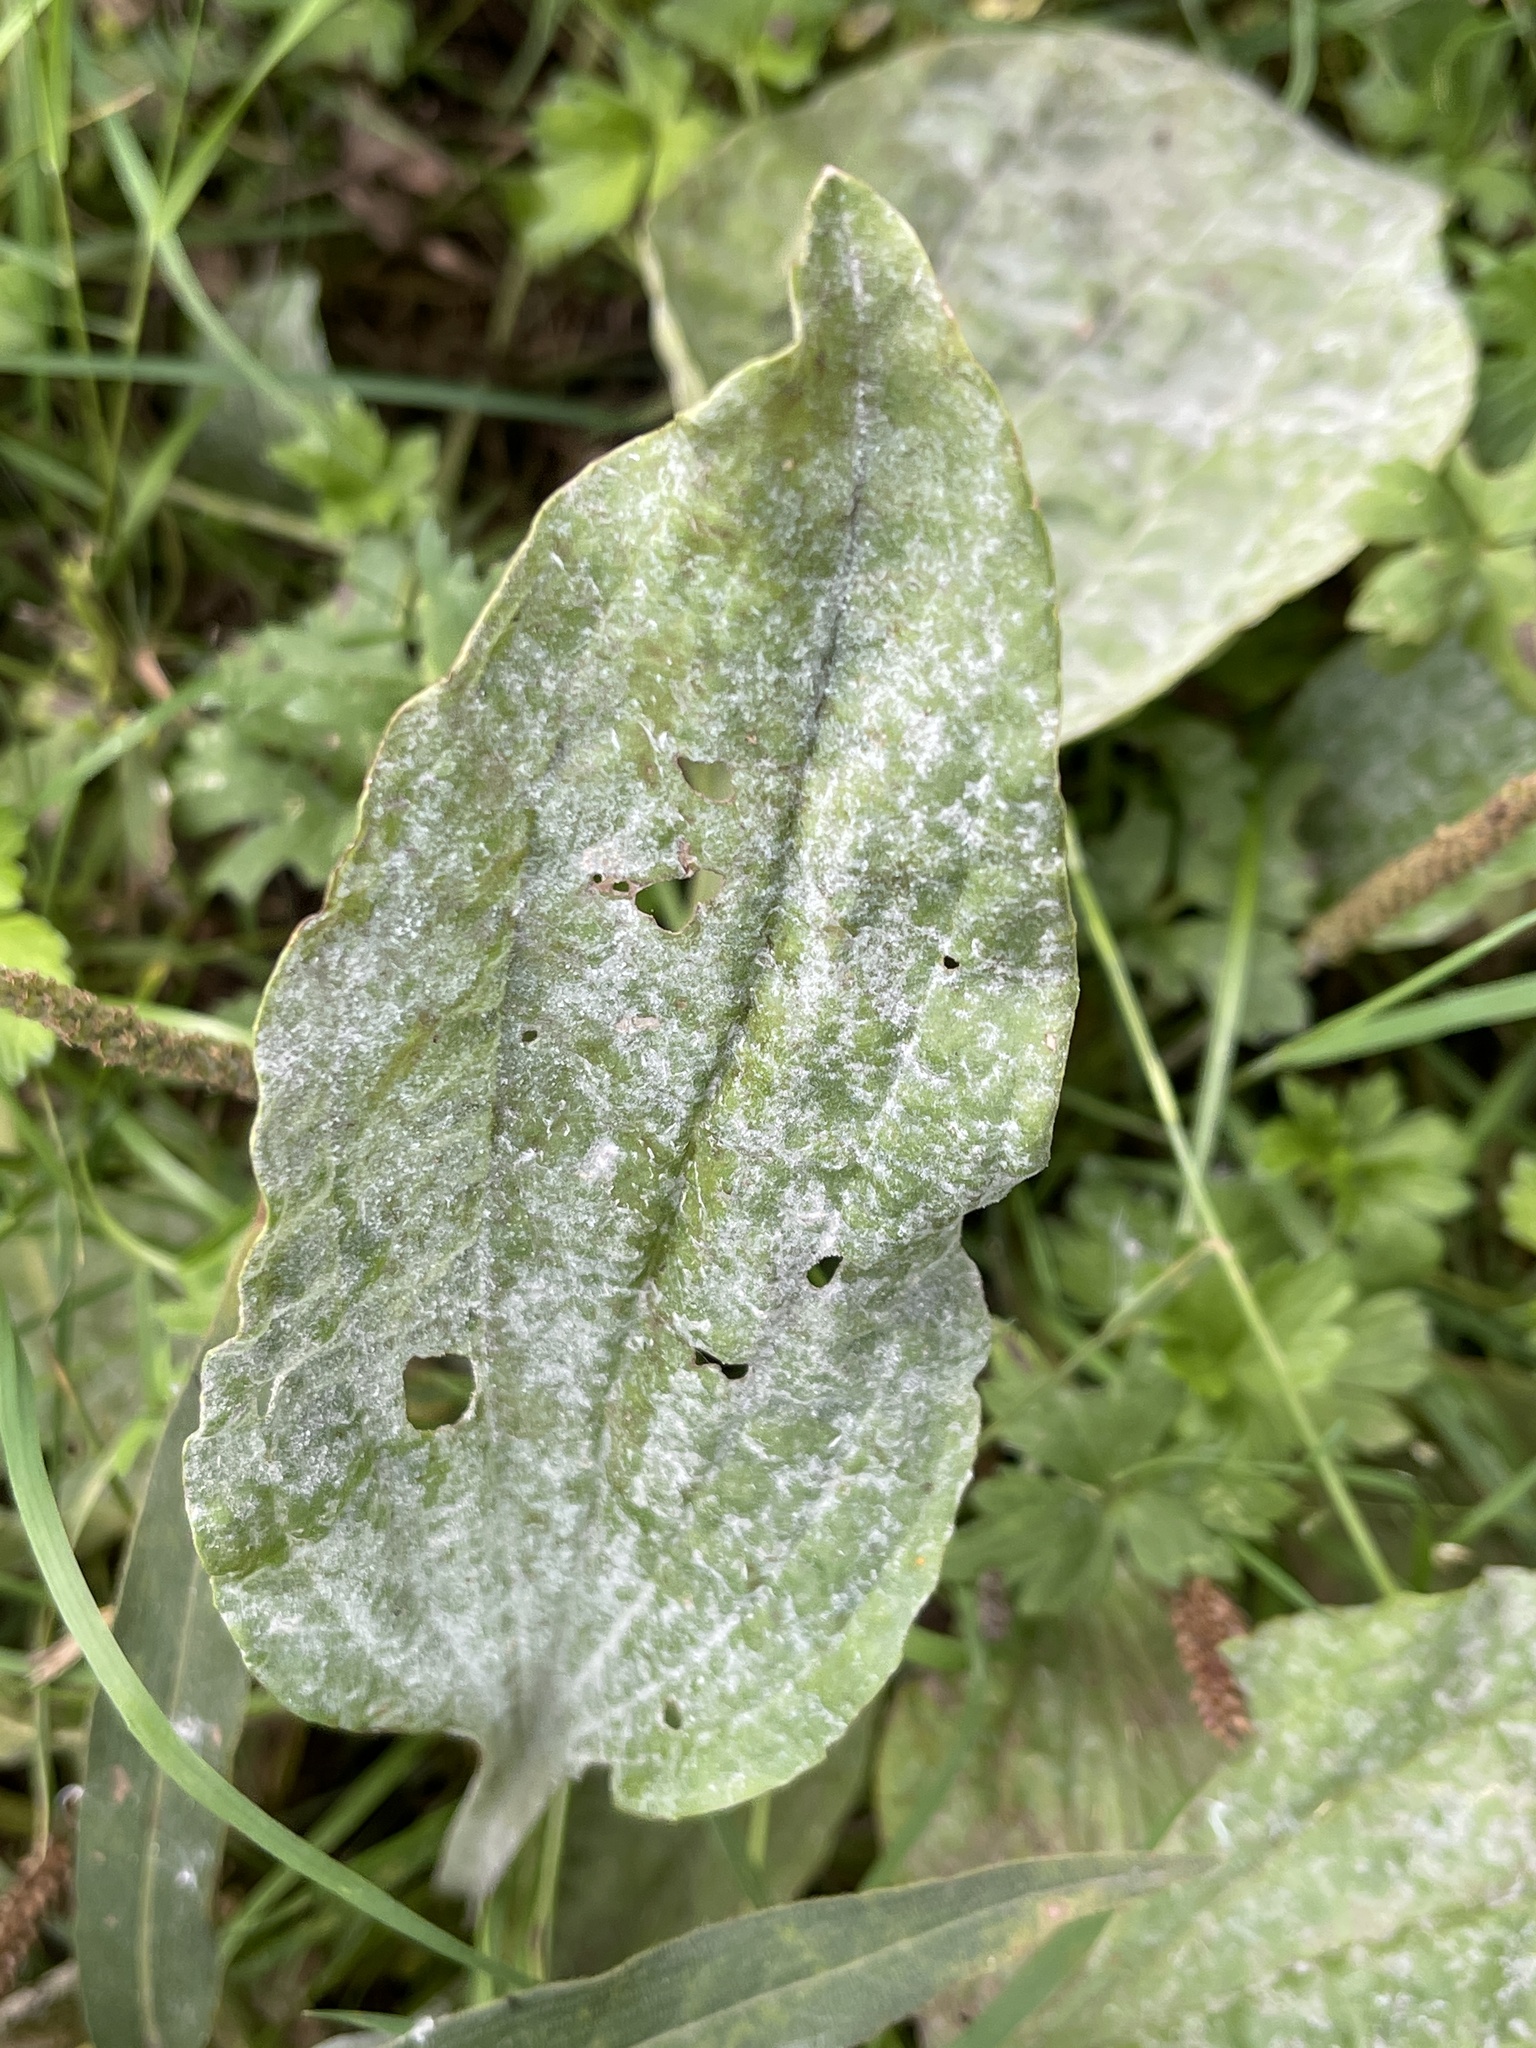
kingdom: Fungi
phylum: Ascomycota
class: Leotiomycetes
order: Helotiales
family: Erysiphaceae
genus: Golovinomyces
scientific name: Golovinomyces sordidus
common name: Plantain mildew
